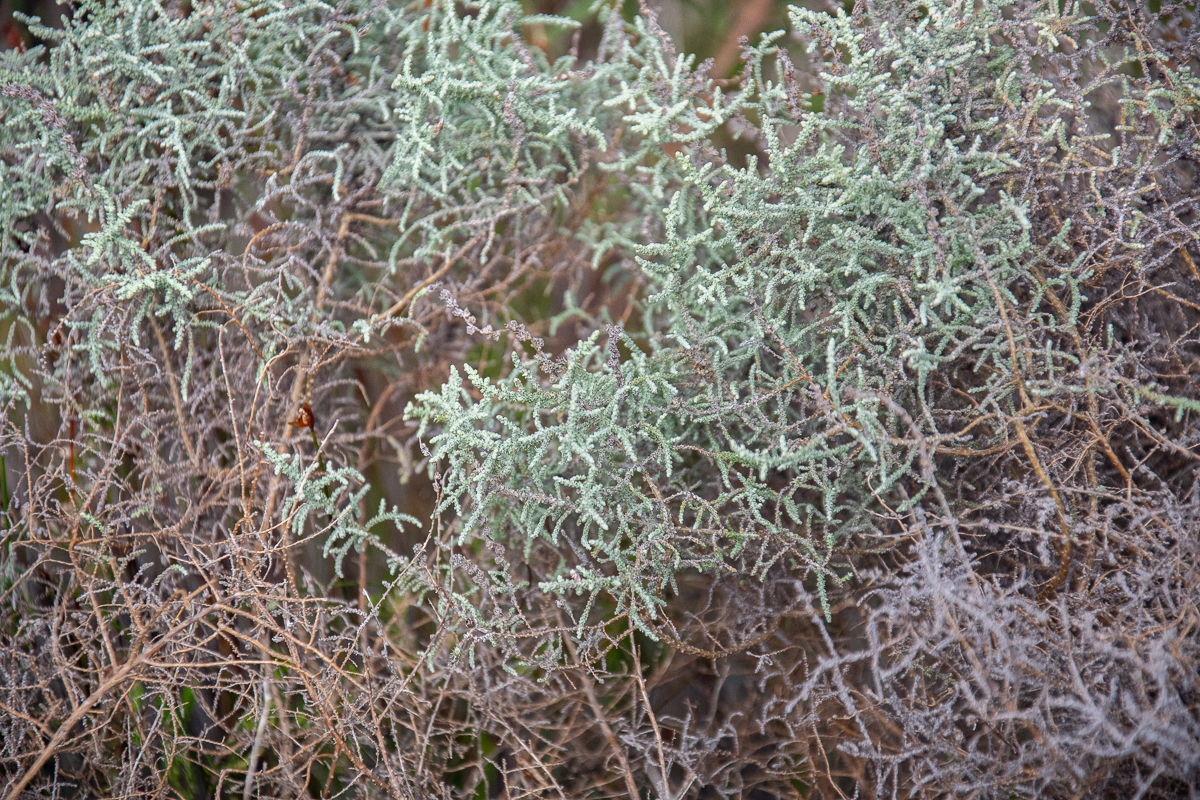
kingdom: Plantae
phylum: Tracheophyta
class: Magnoliopsida
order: Asterales
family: Asteraceae
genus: Seriphium
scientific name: Seriphium plumosum
